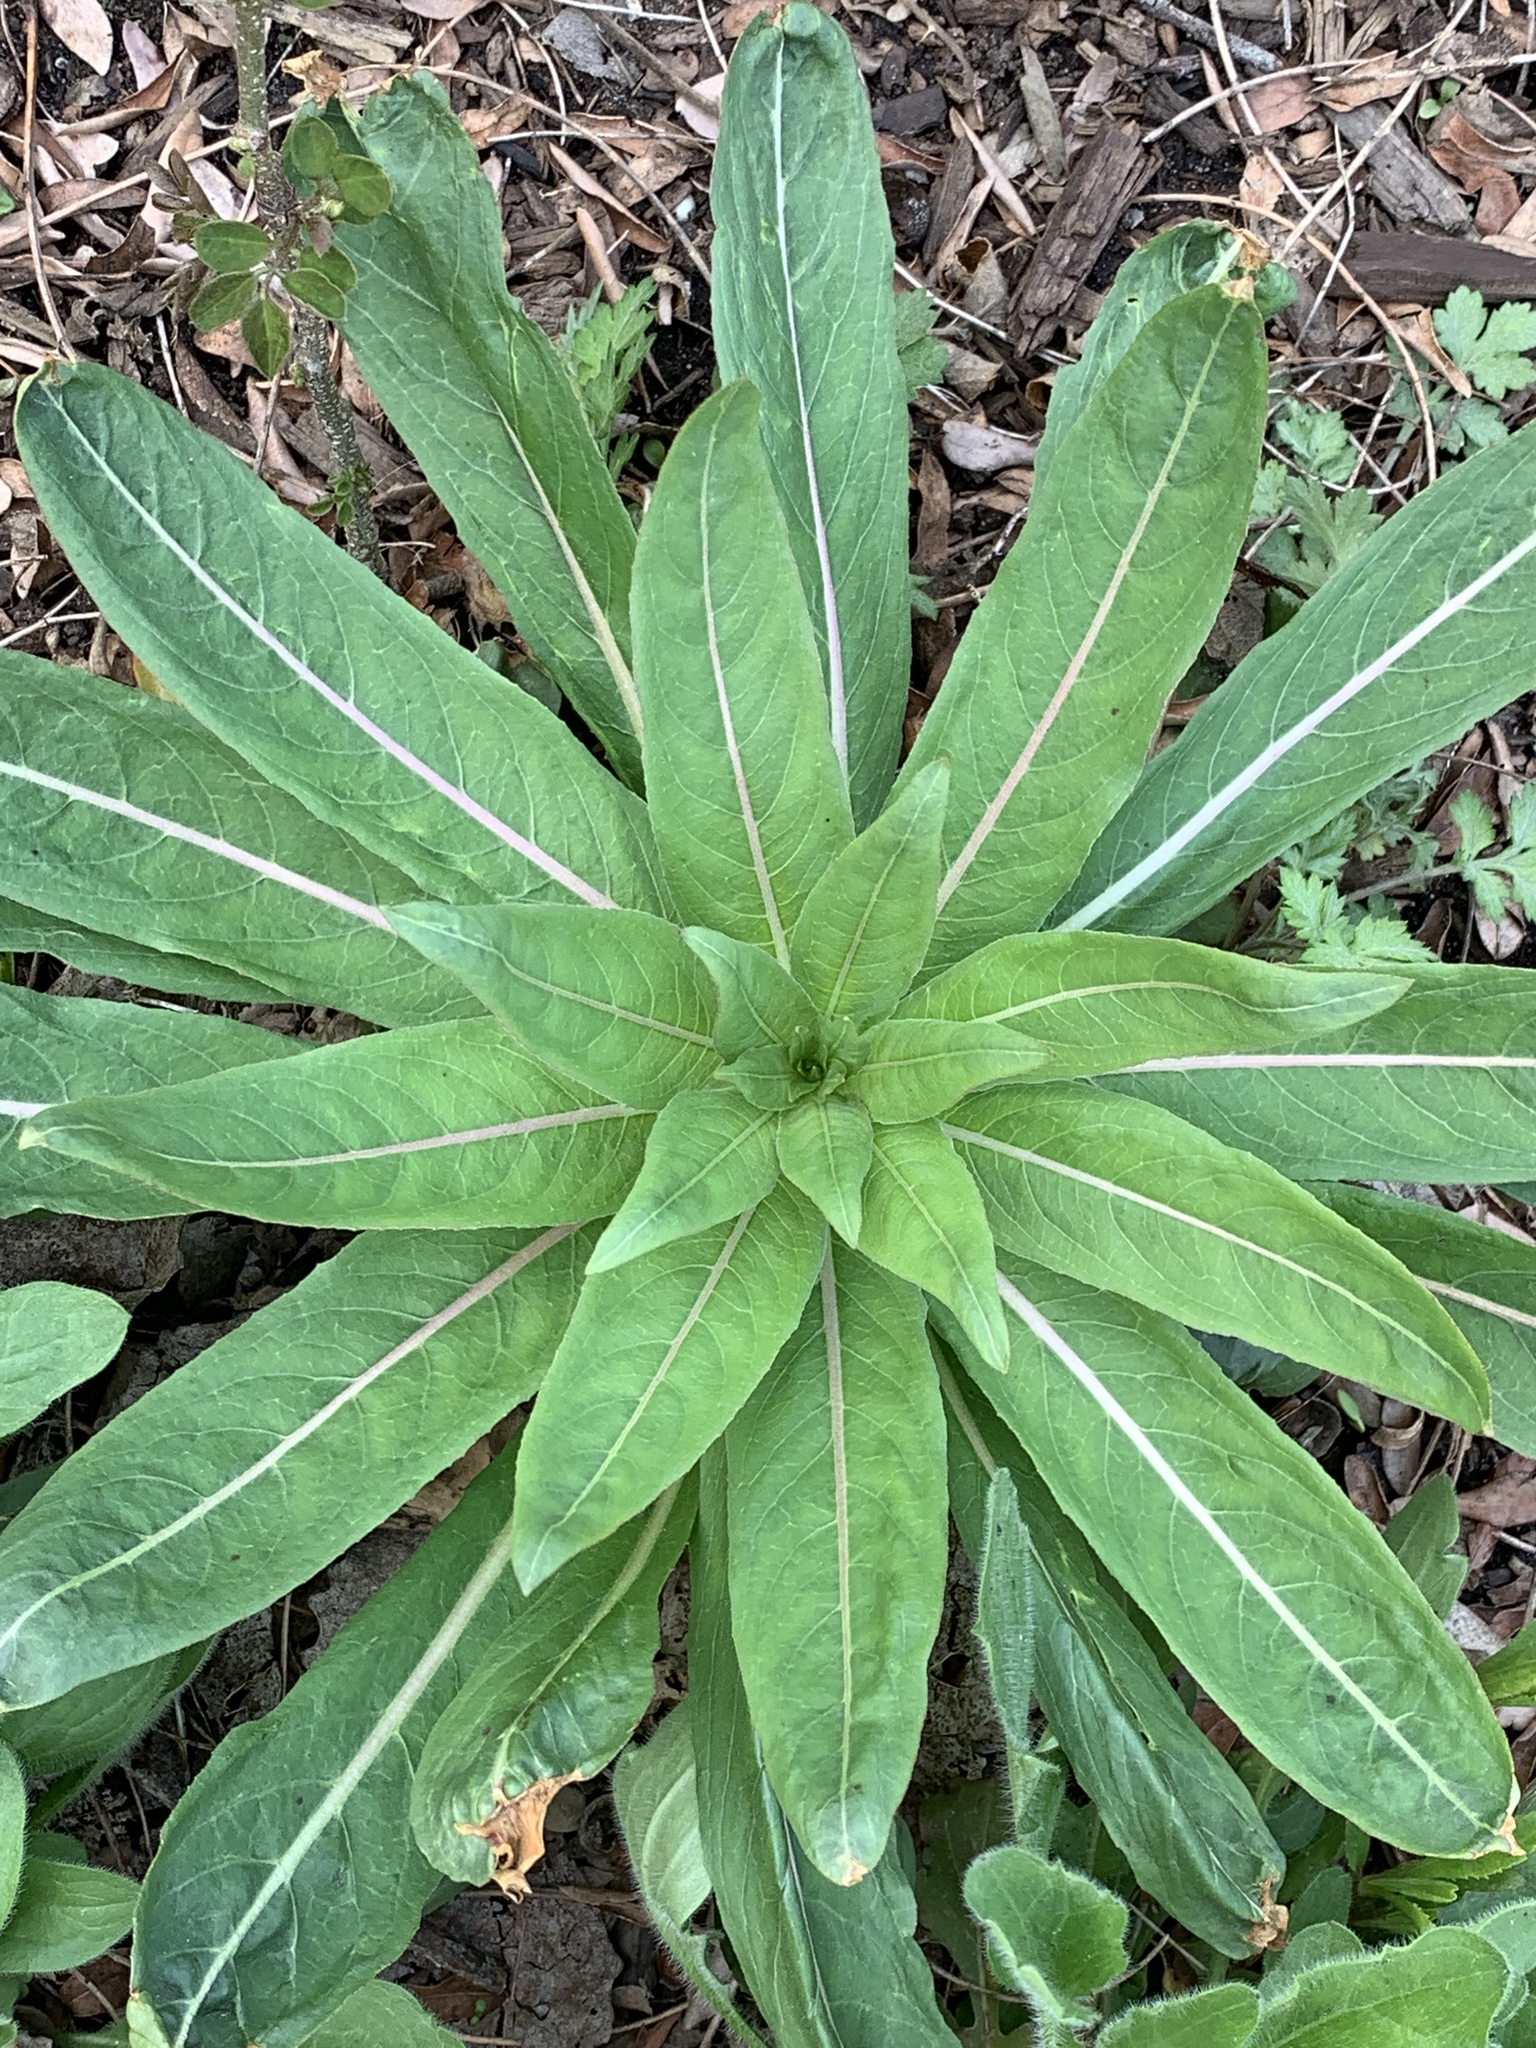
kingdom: Plantae
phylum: Tracheophyta
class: Magnoliopsida
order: Myrtales
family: Onagraceae
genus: Oenothera
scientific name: Oenothera biennis
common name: Common evening-primrose
